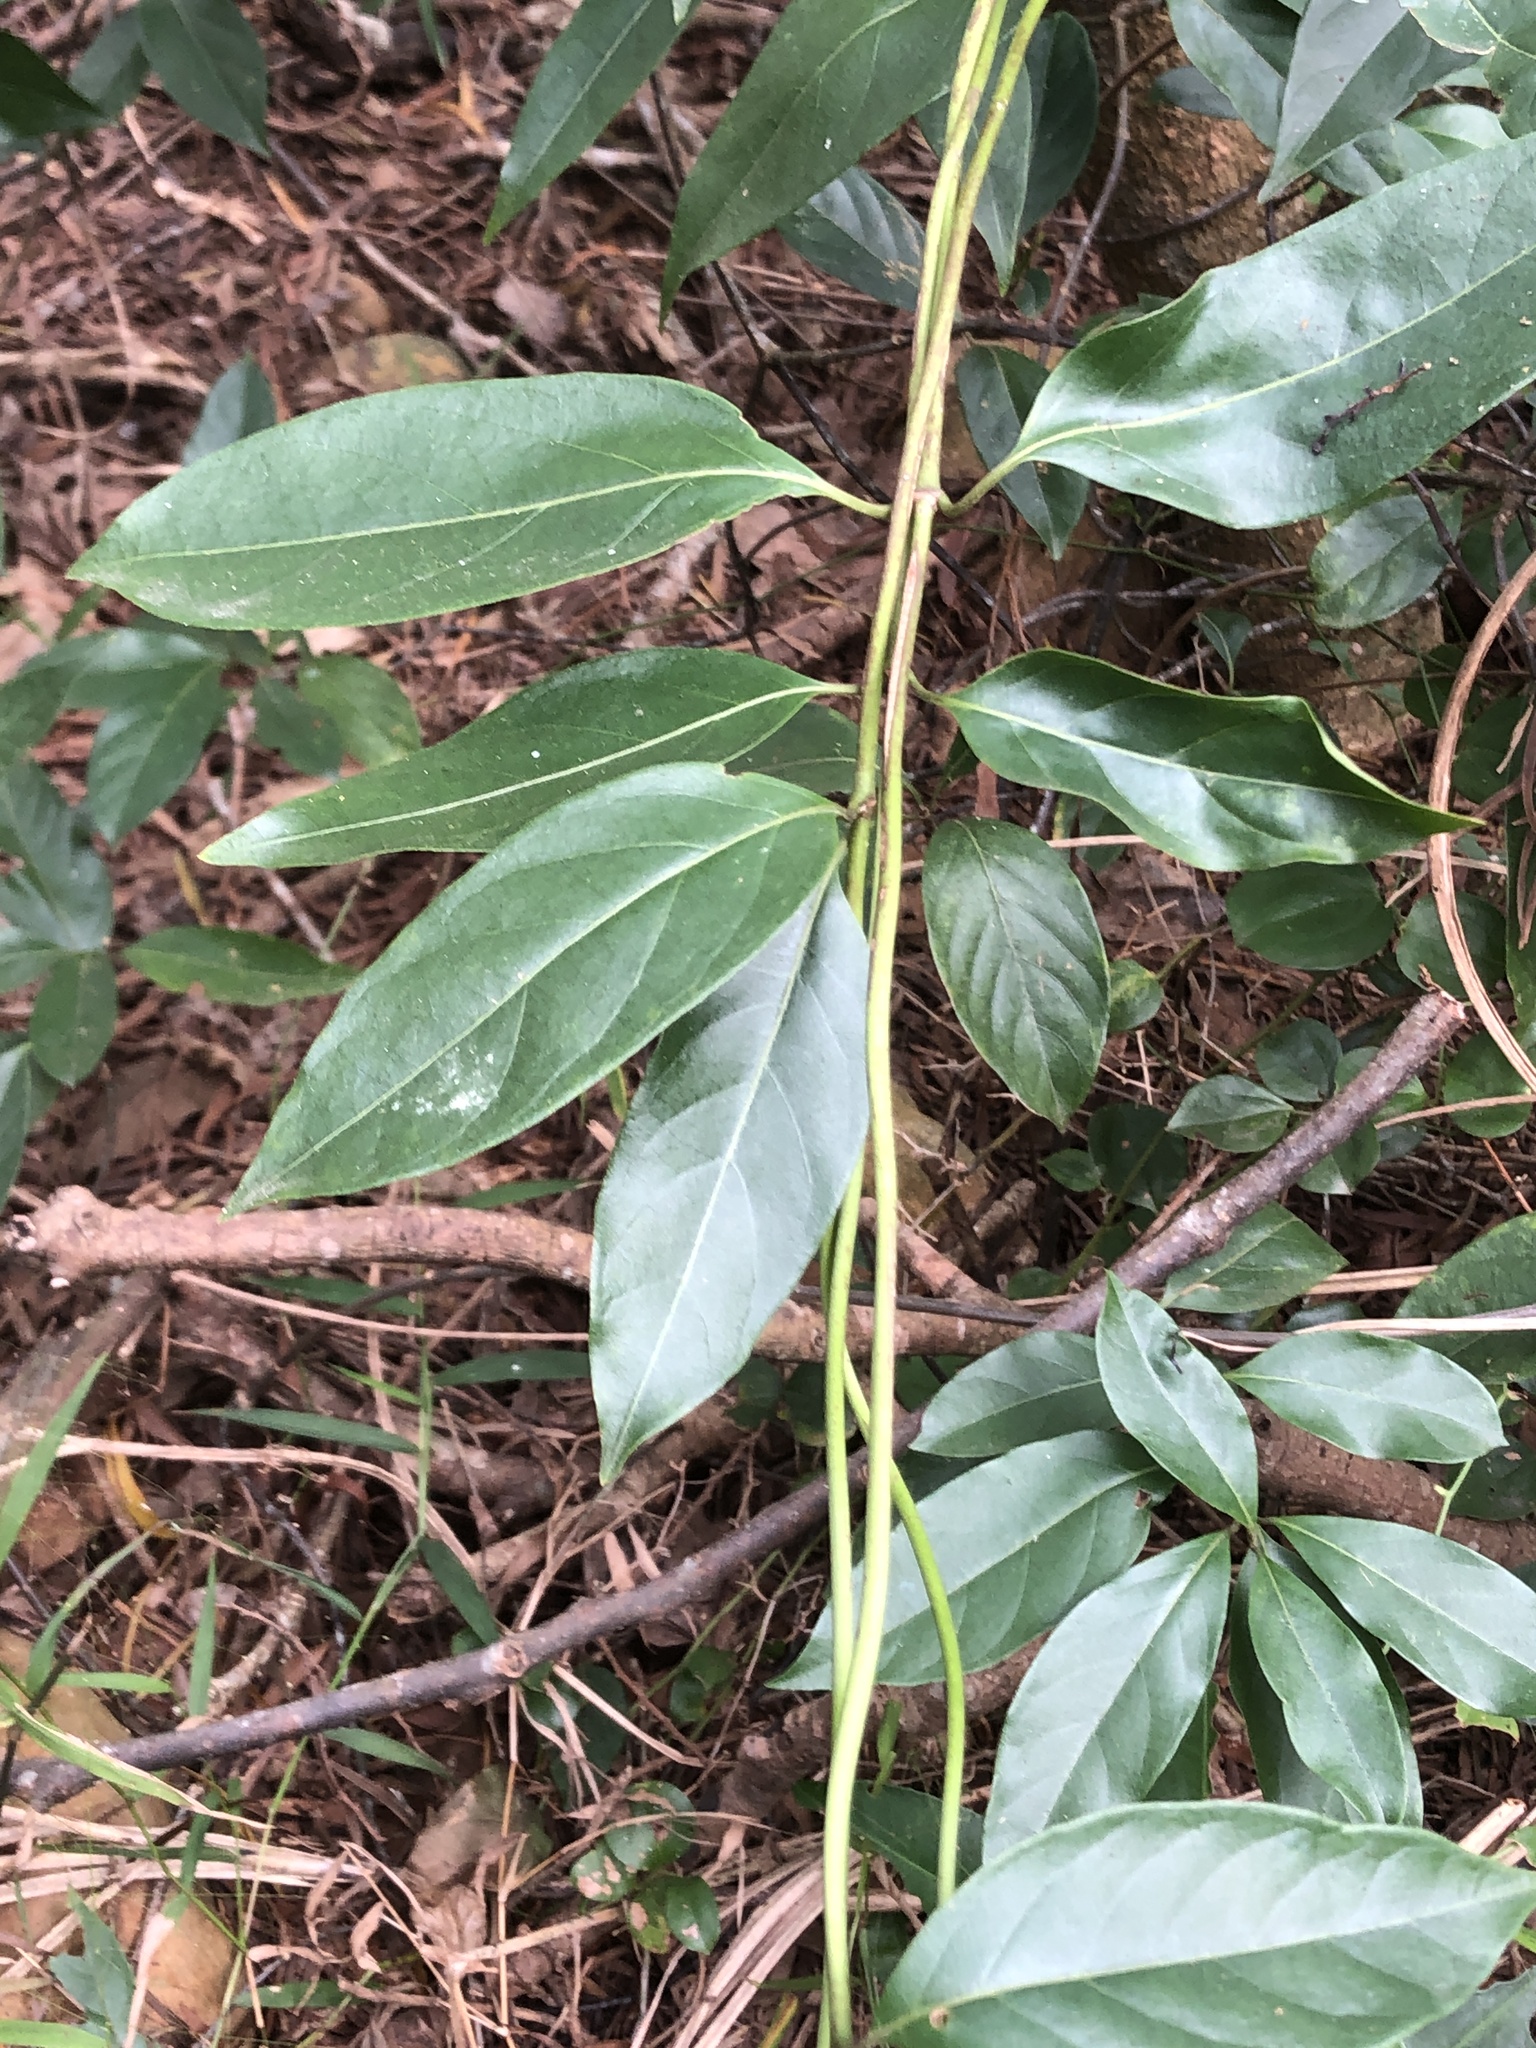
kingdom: Plantae
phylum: Tracheophyta
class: Magnoliopsida
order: Gentianales
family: Rubiaceae
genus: Gynochthodes
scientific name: Gynochthodes umbellata
